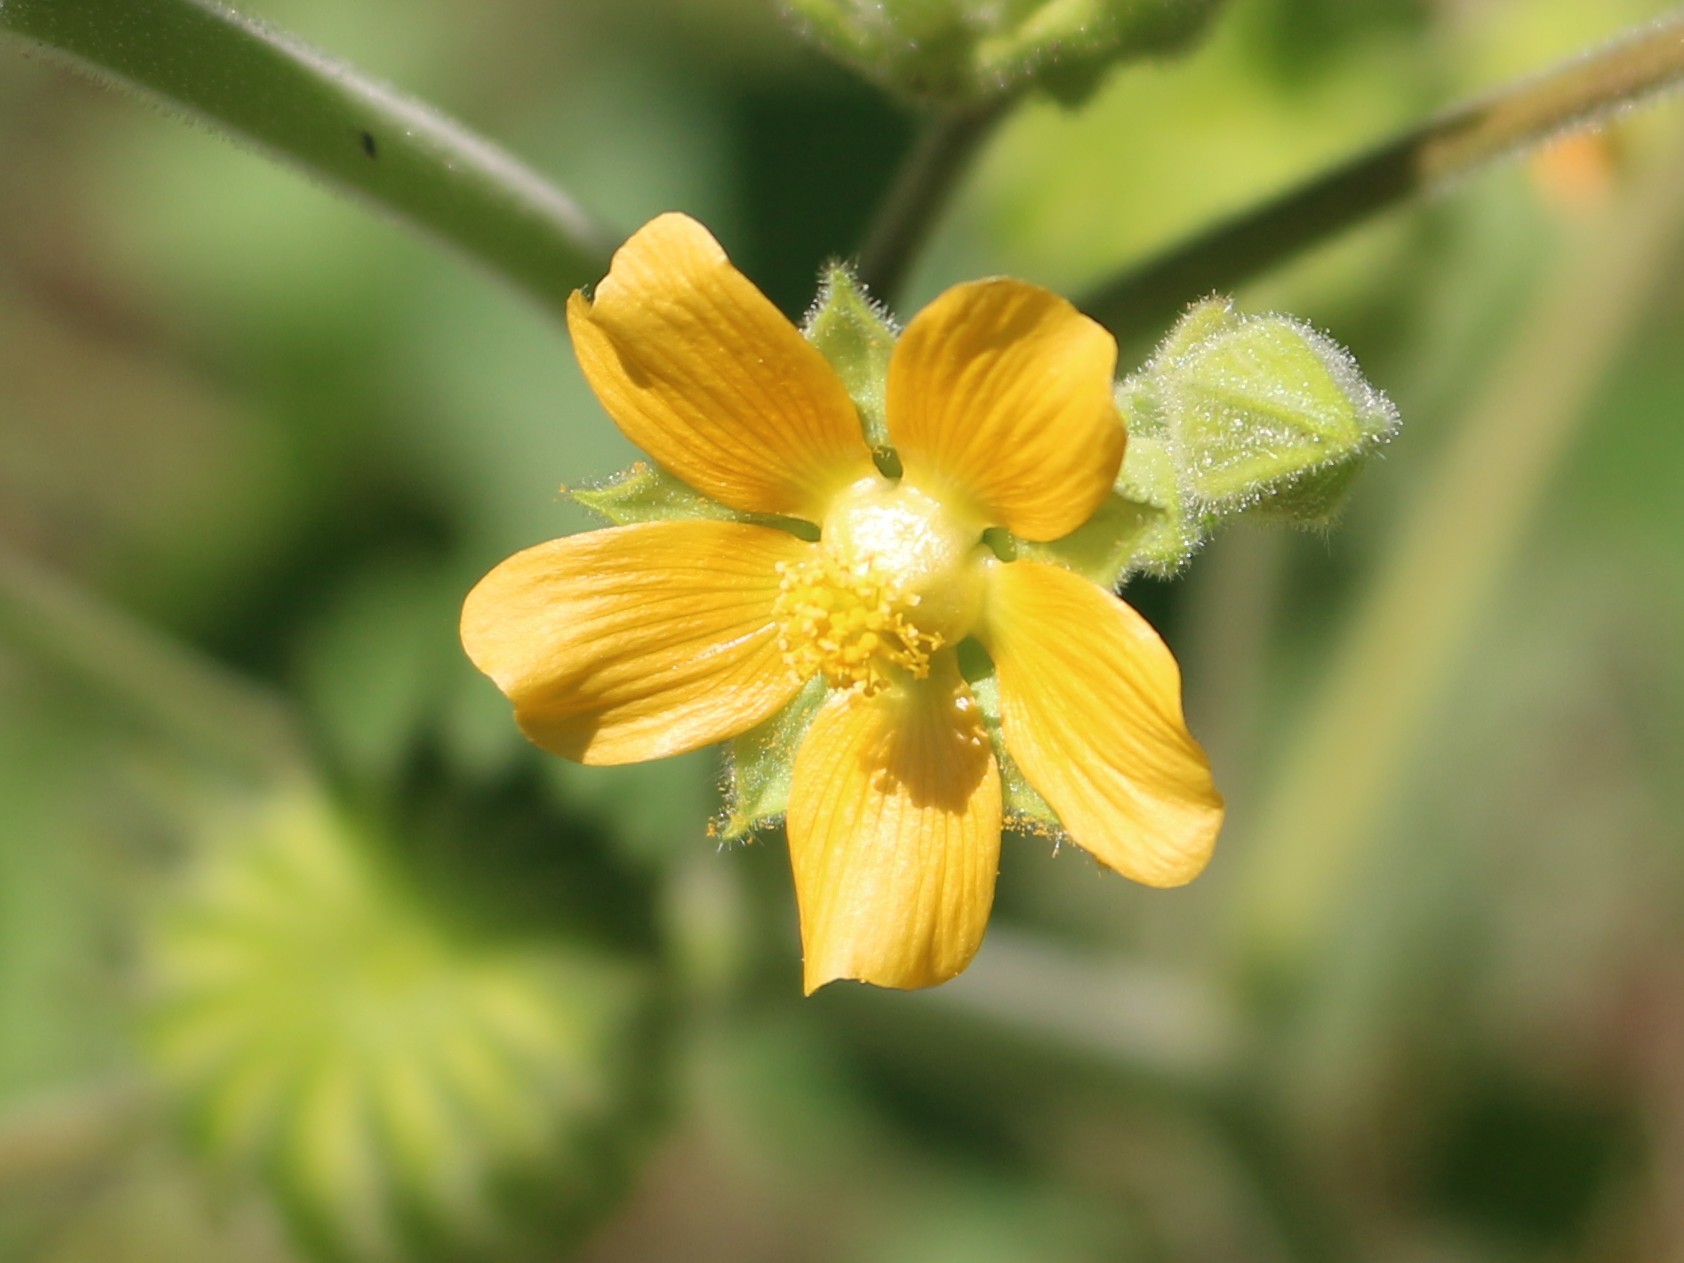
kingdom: Plantae
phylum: Tracheophyta
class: Magnoliopsida
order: Malvales
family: Malvaceae
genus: Abutilon
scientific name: Abutilon theophrasti
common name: Velvetleaf
